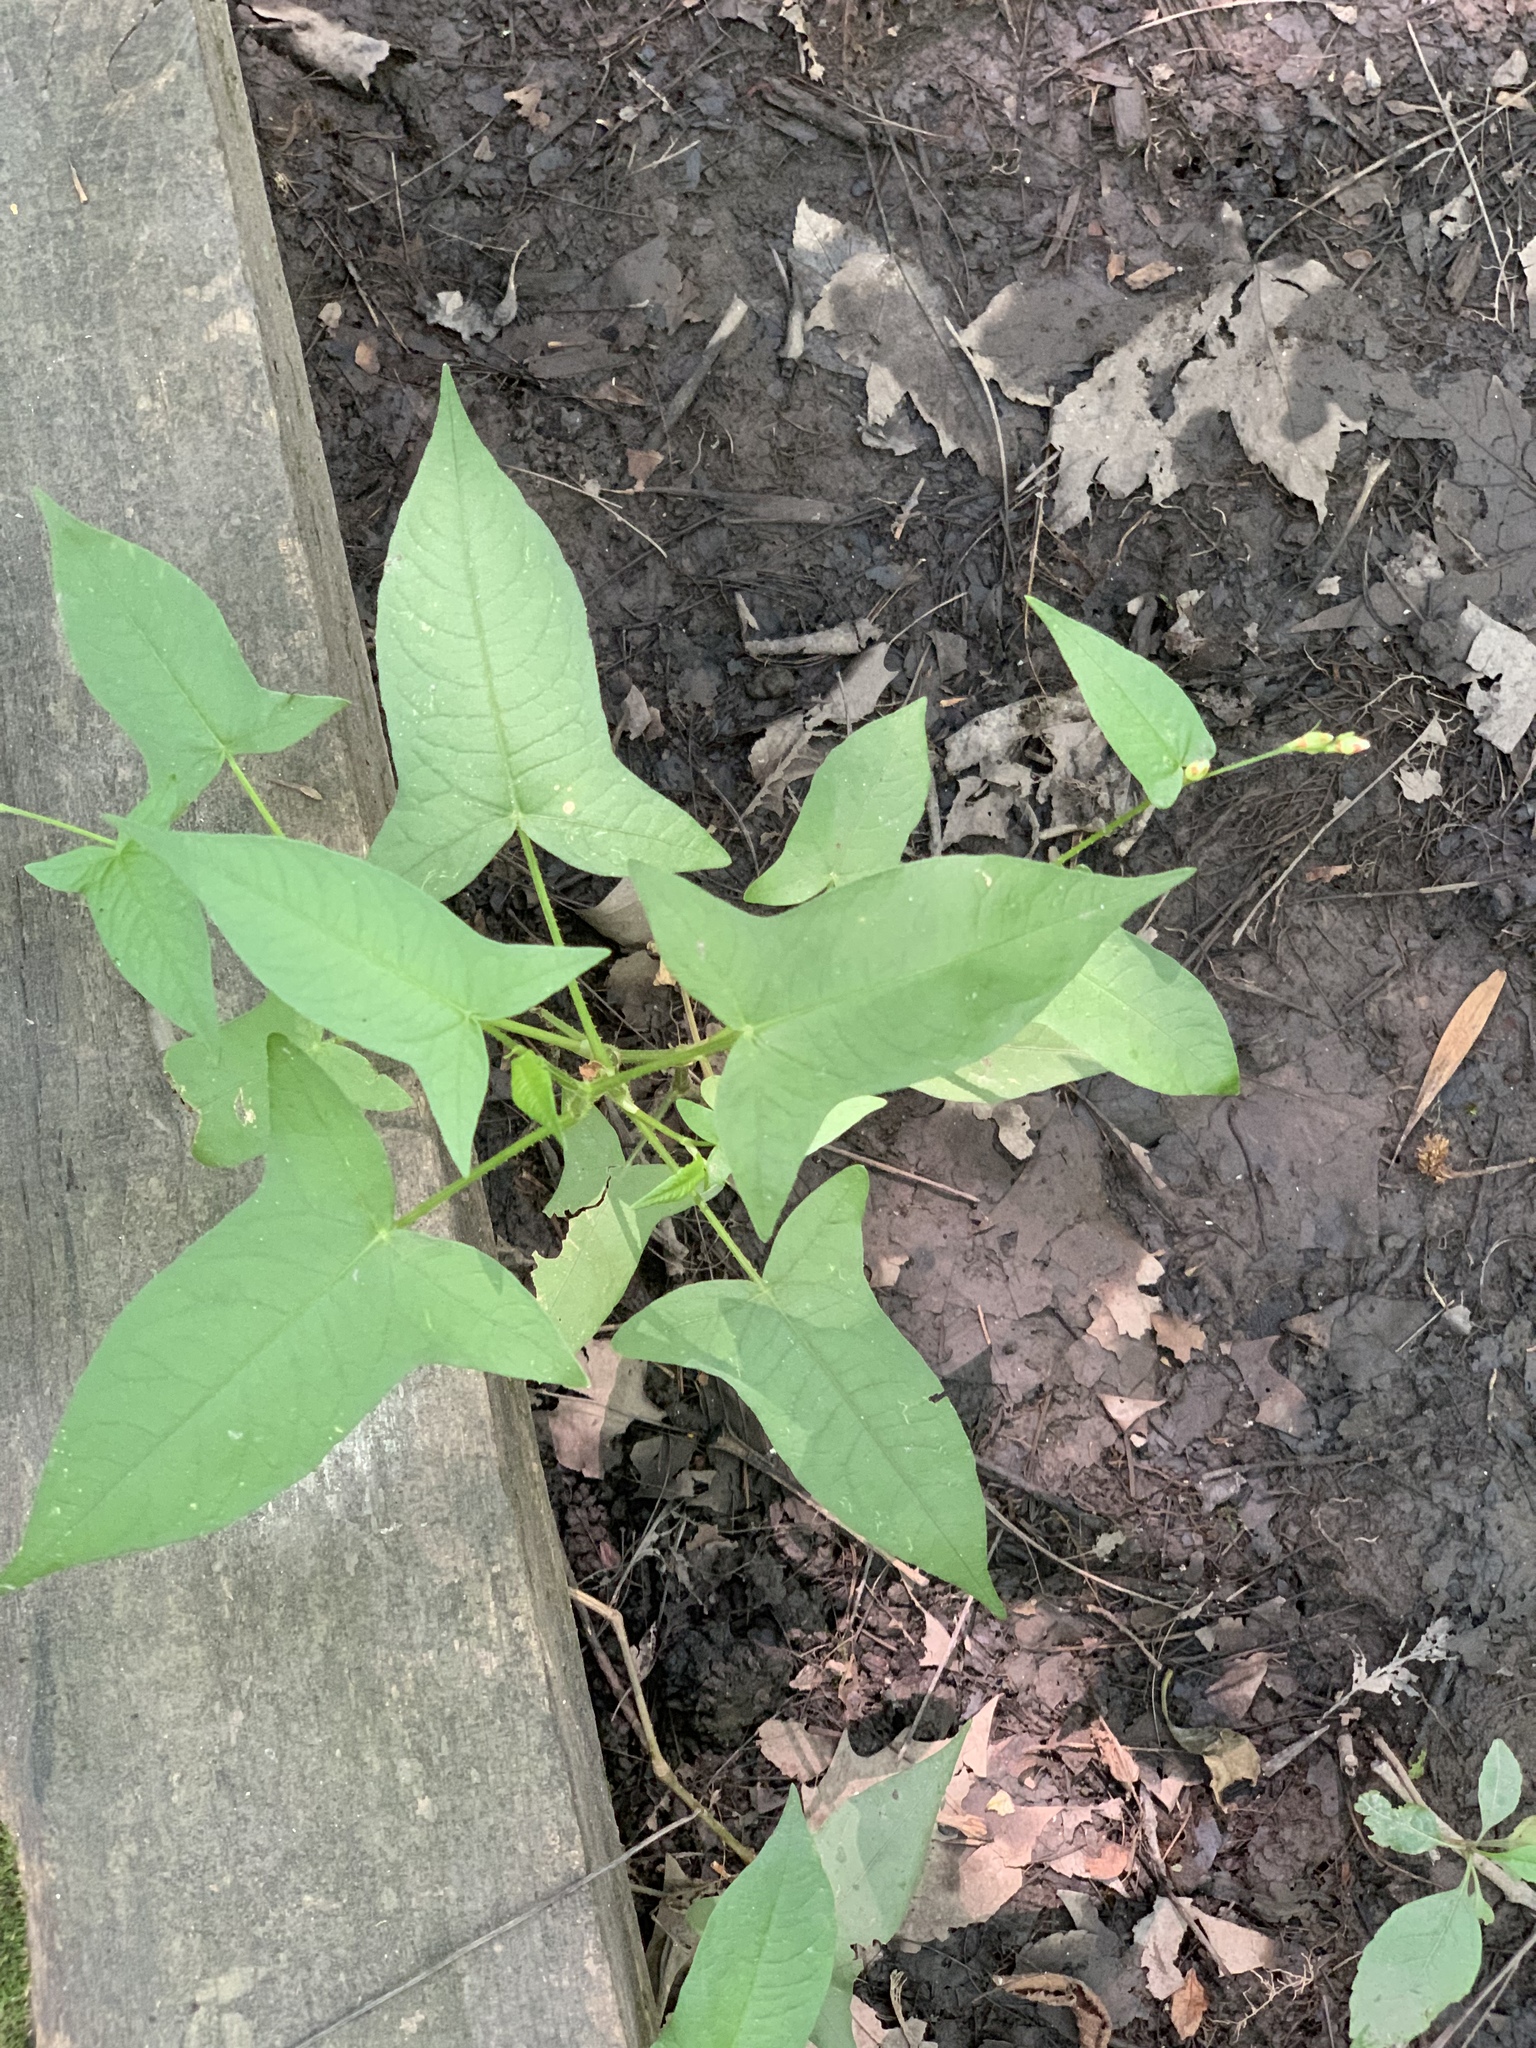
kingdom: Plantae
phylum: Tracheophyta
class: Magnoliopsida
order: Caryophyllales
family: Polygonaceae
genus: Persicaria
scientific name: Persicaria arifolia
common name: Halberd-leaved tear-thumb
